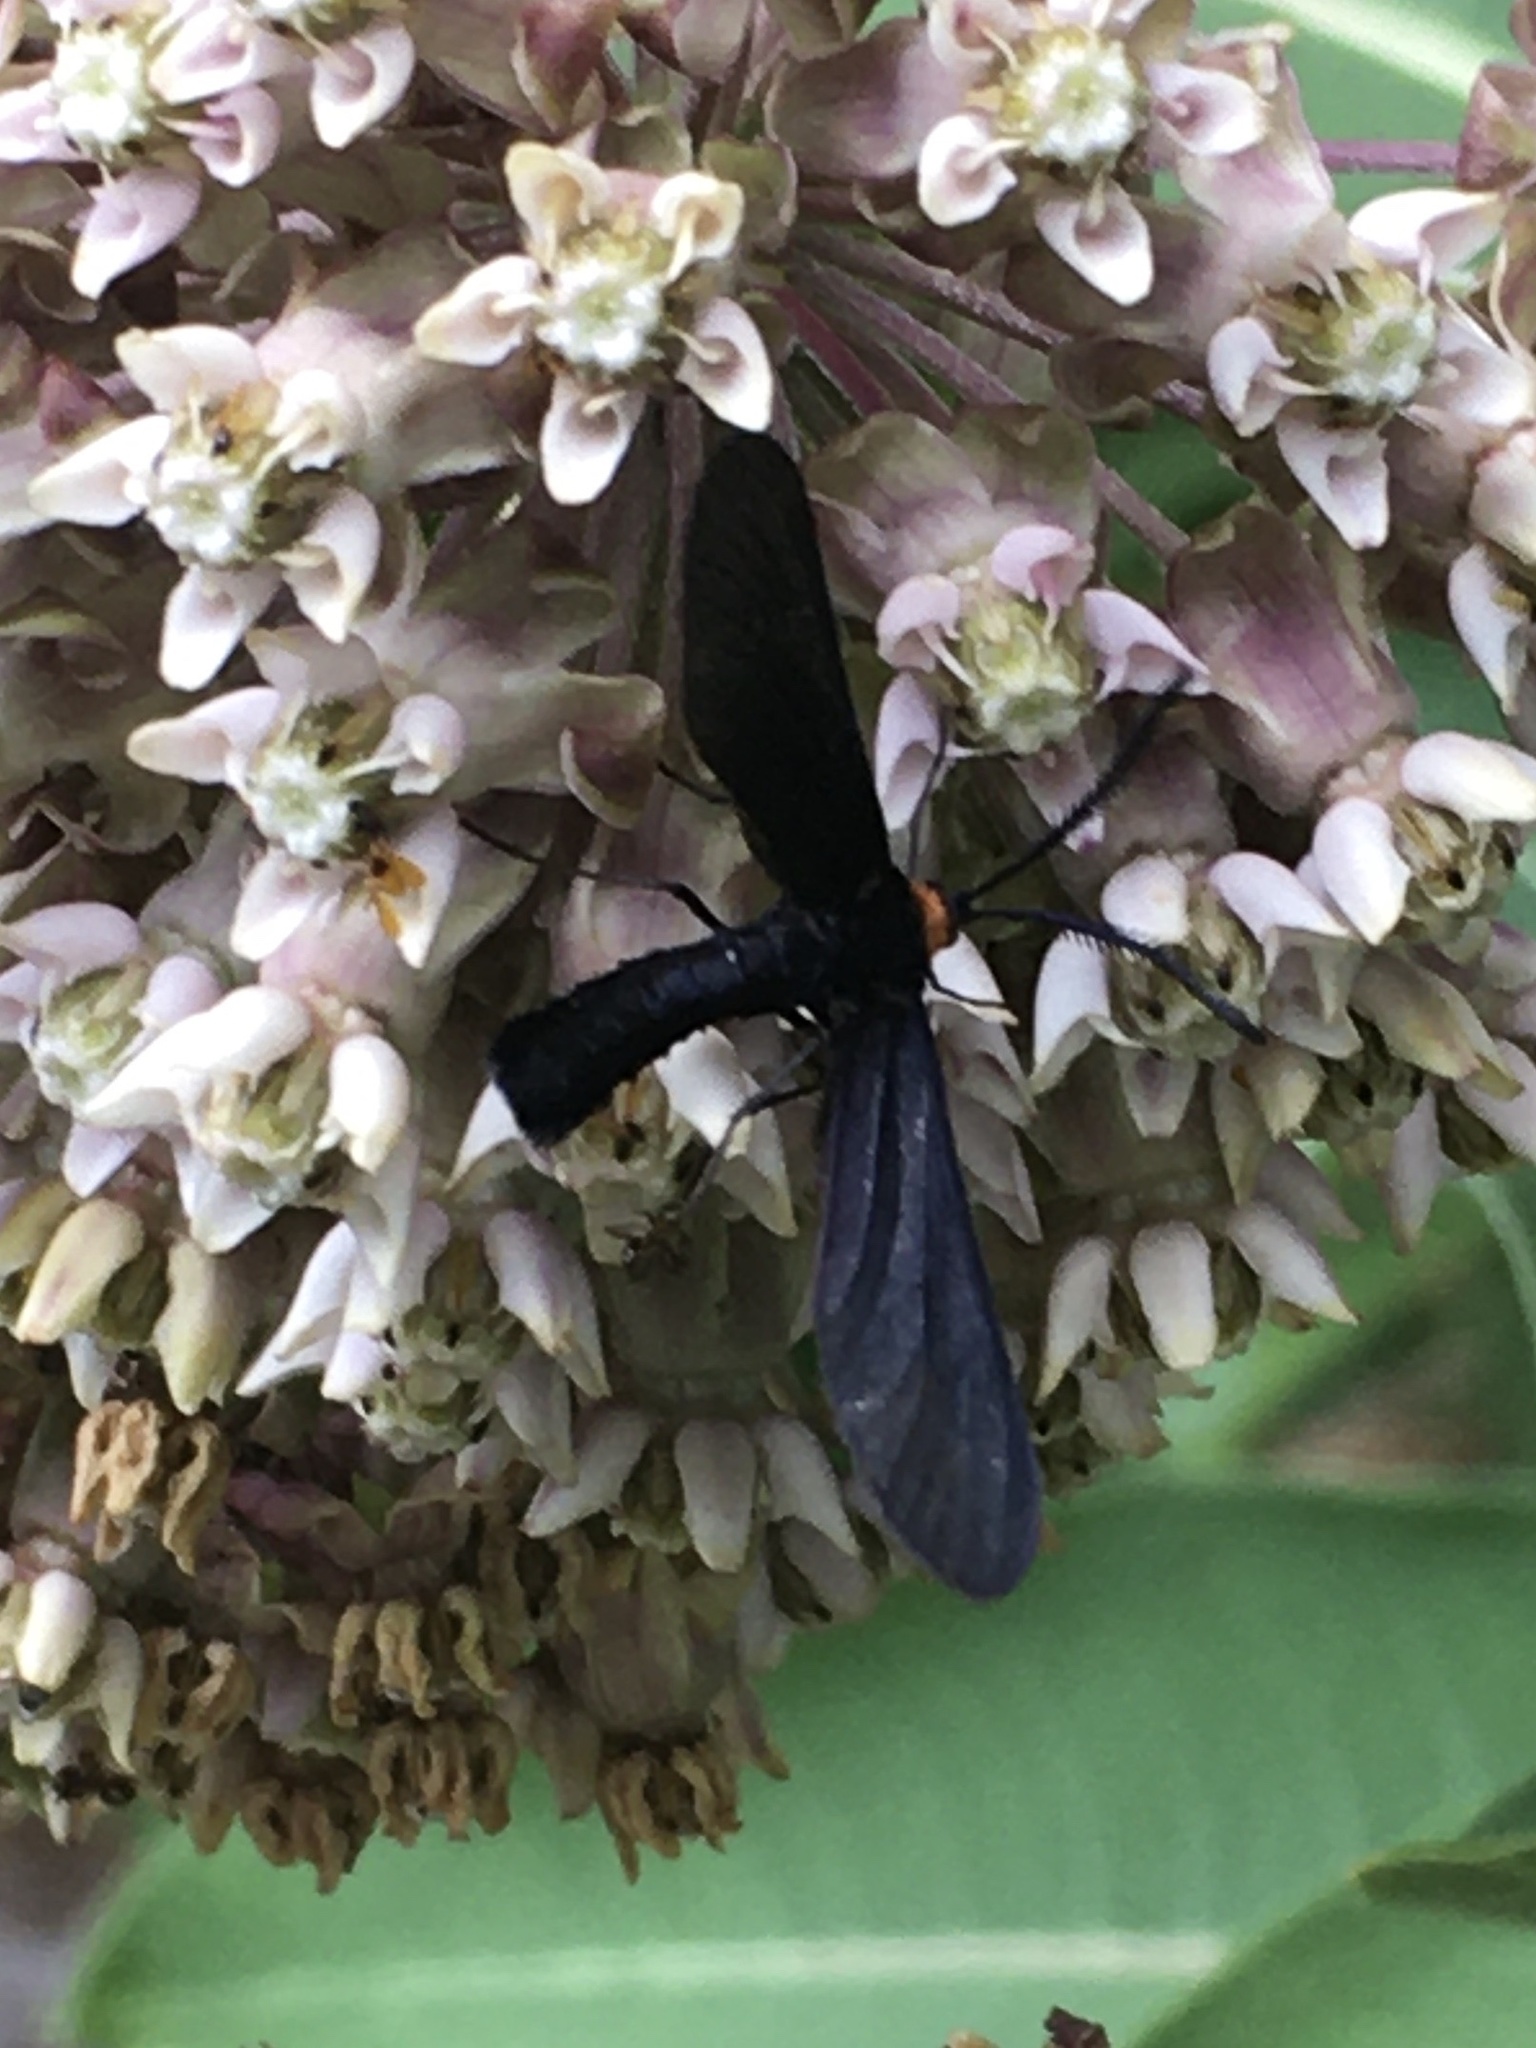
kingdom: Animalia
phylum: Arthropoda
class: Insecta
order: Lepidoptera
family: Zygaenidae
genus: Harrisina
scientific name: Harrisina americana
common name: Grapeleaf skeletonizer moth
